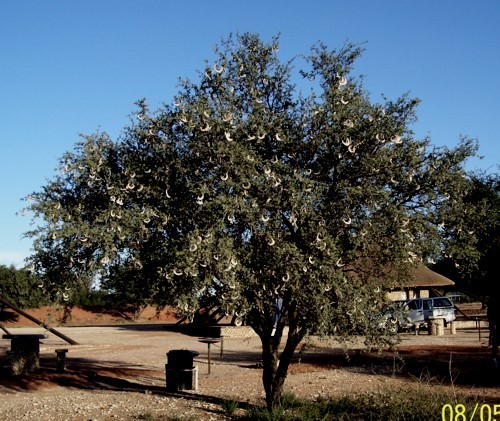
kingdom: Plantae
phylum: Tracheophyta
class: Magnoliopsida
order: Fabales
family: Fabaceae
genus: Vachellia
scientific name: Vachellia erioloba
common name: Camel thorn
